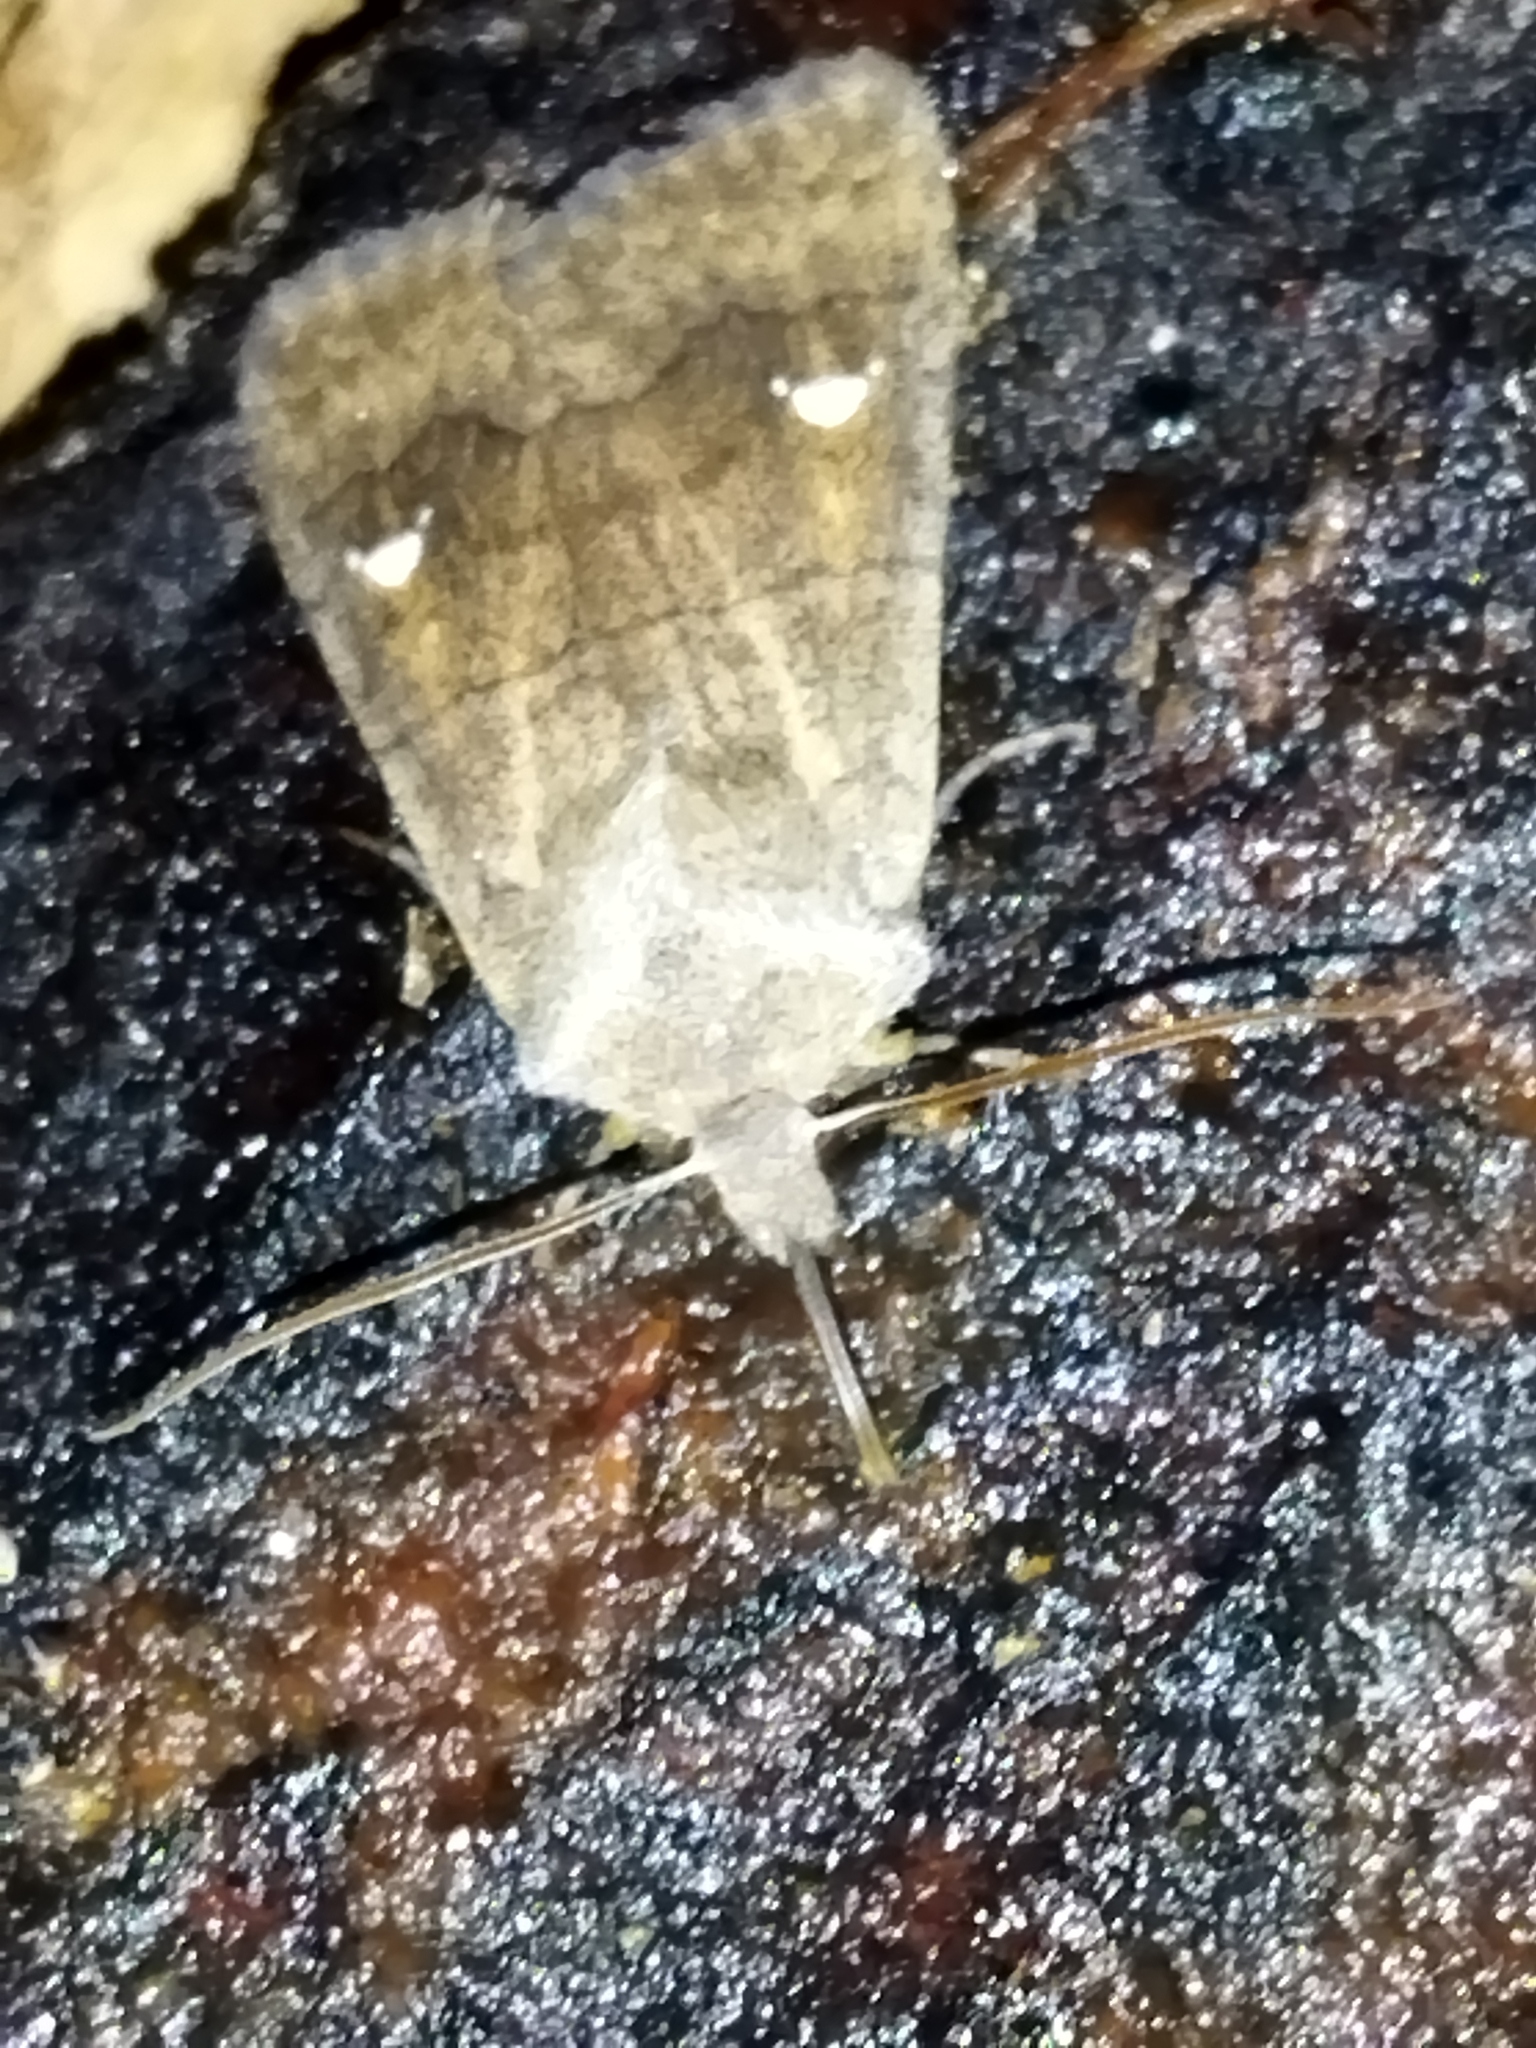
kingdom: Animalia
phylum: Arthropoda
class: Insecta
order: Lepidoptera
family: Noctuidae
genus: Eupsilia
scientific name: Eupsilia transversa
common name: Satellite
